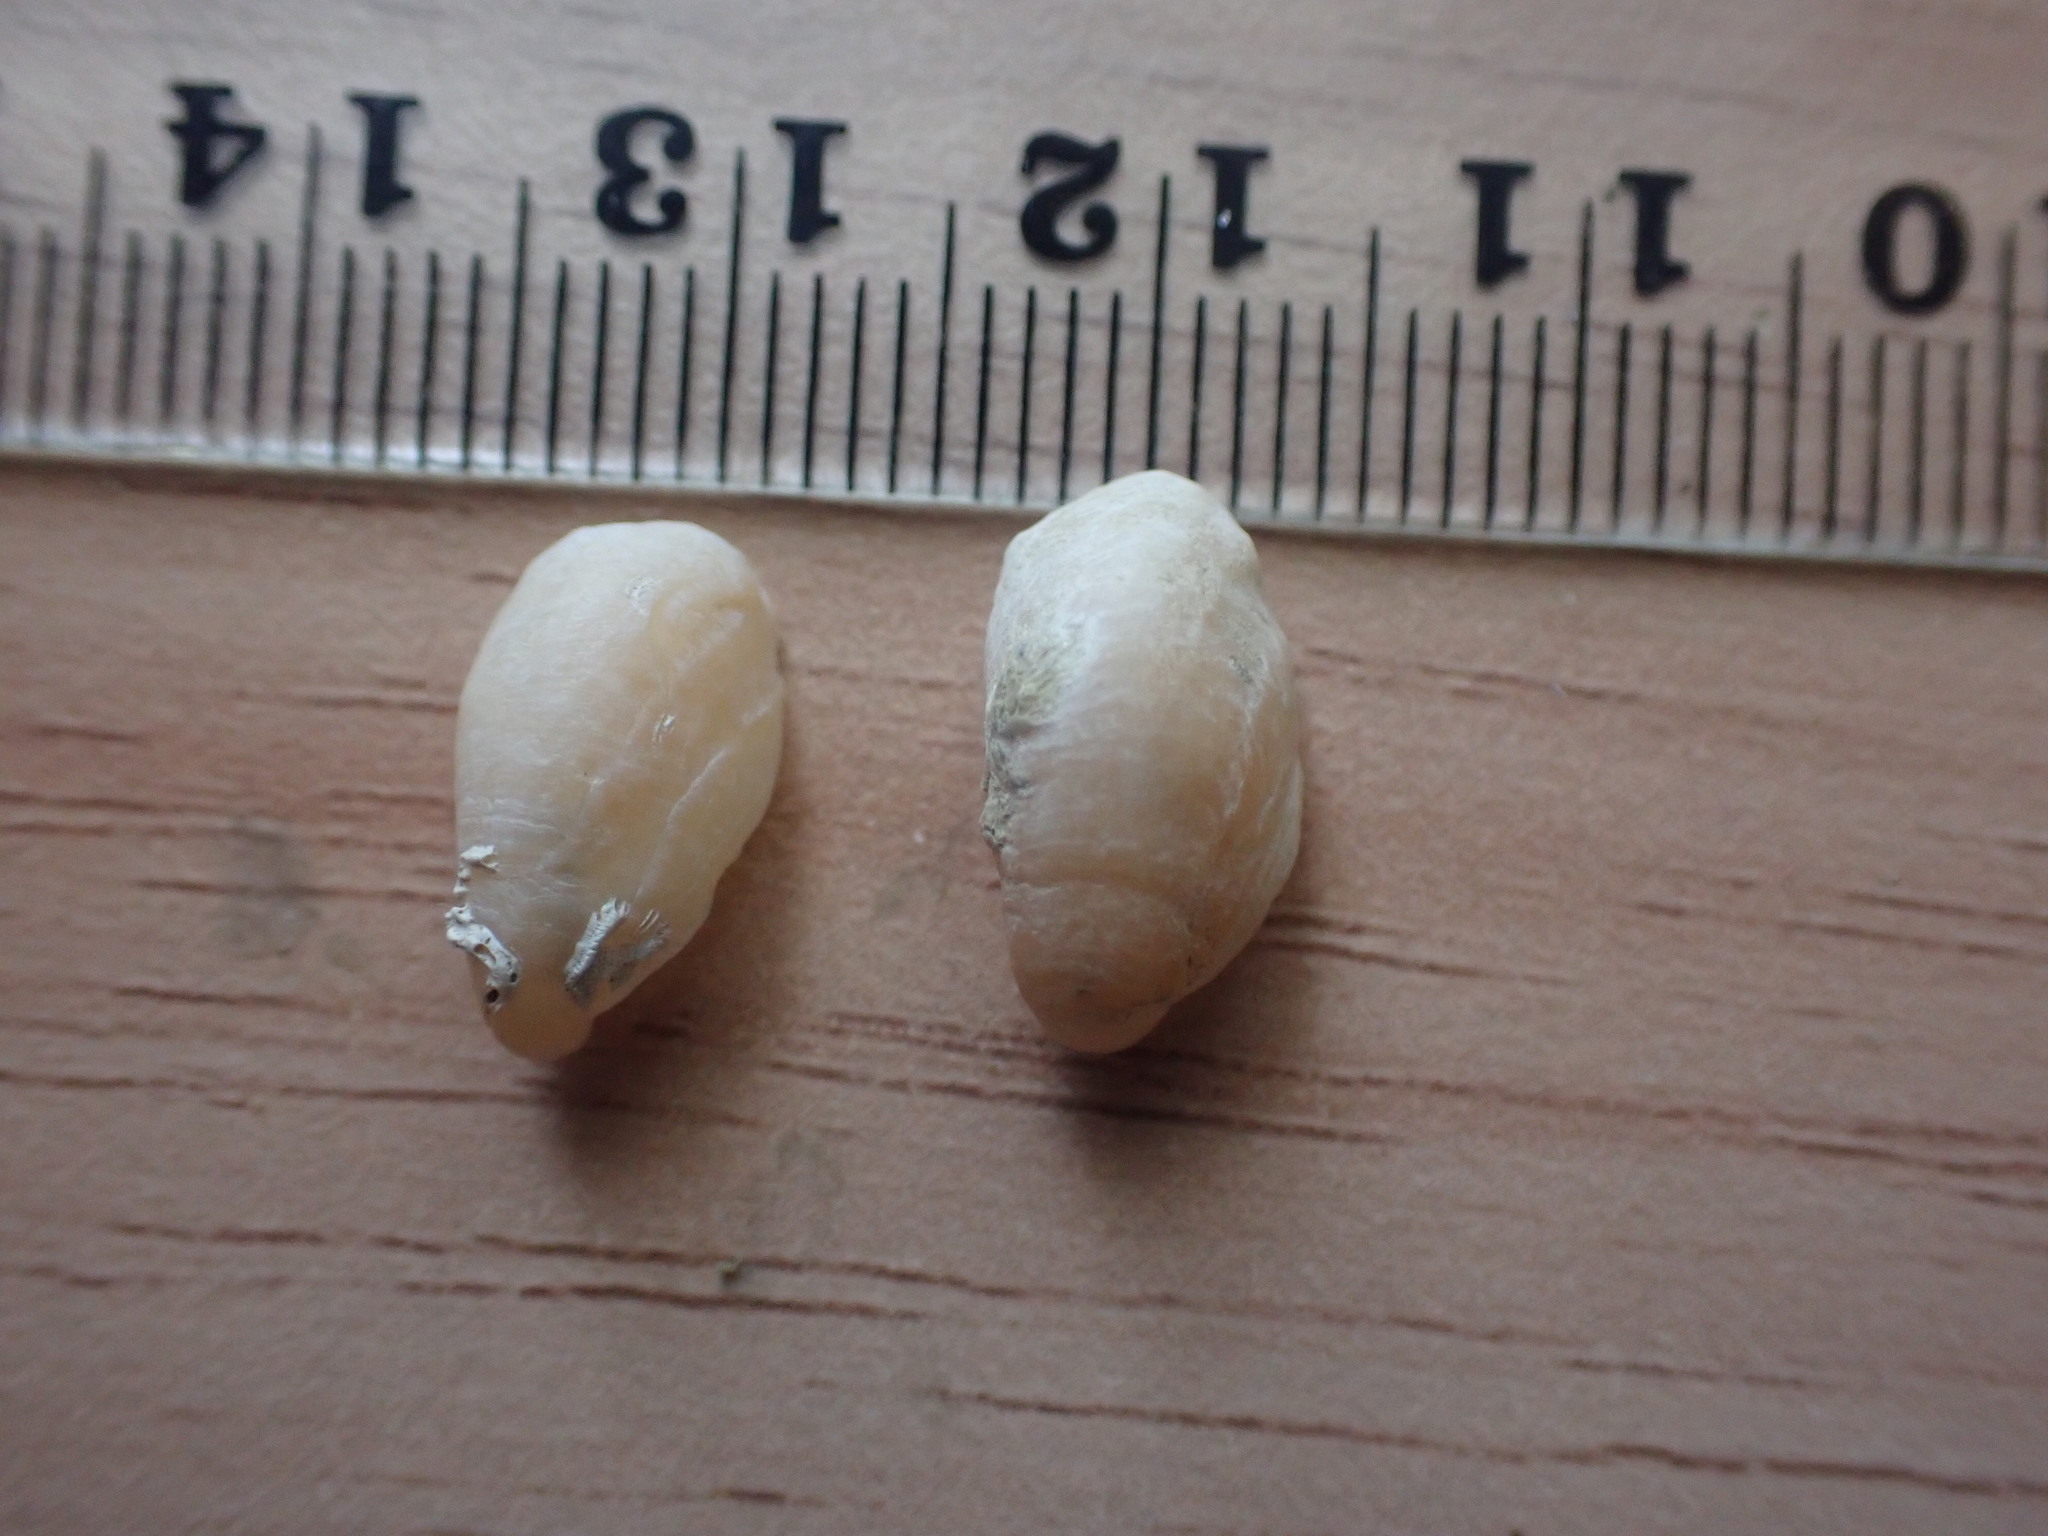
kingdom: Animalia
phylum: Mollusca
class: Gastropoda
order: Littorinimorpha
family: Calyptraeidae
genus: Maoricrypta
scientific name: Maoricrypta monoxyla
